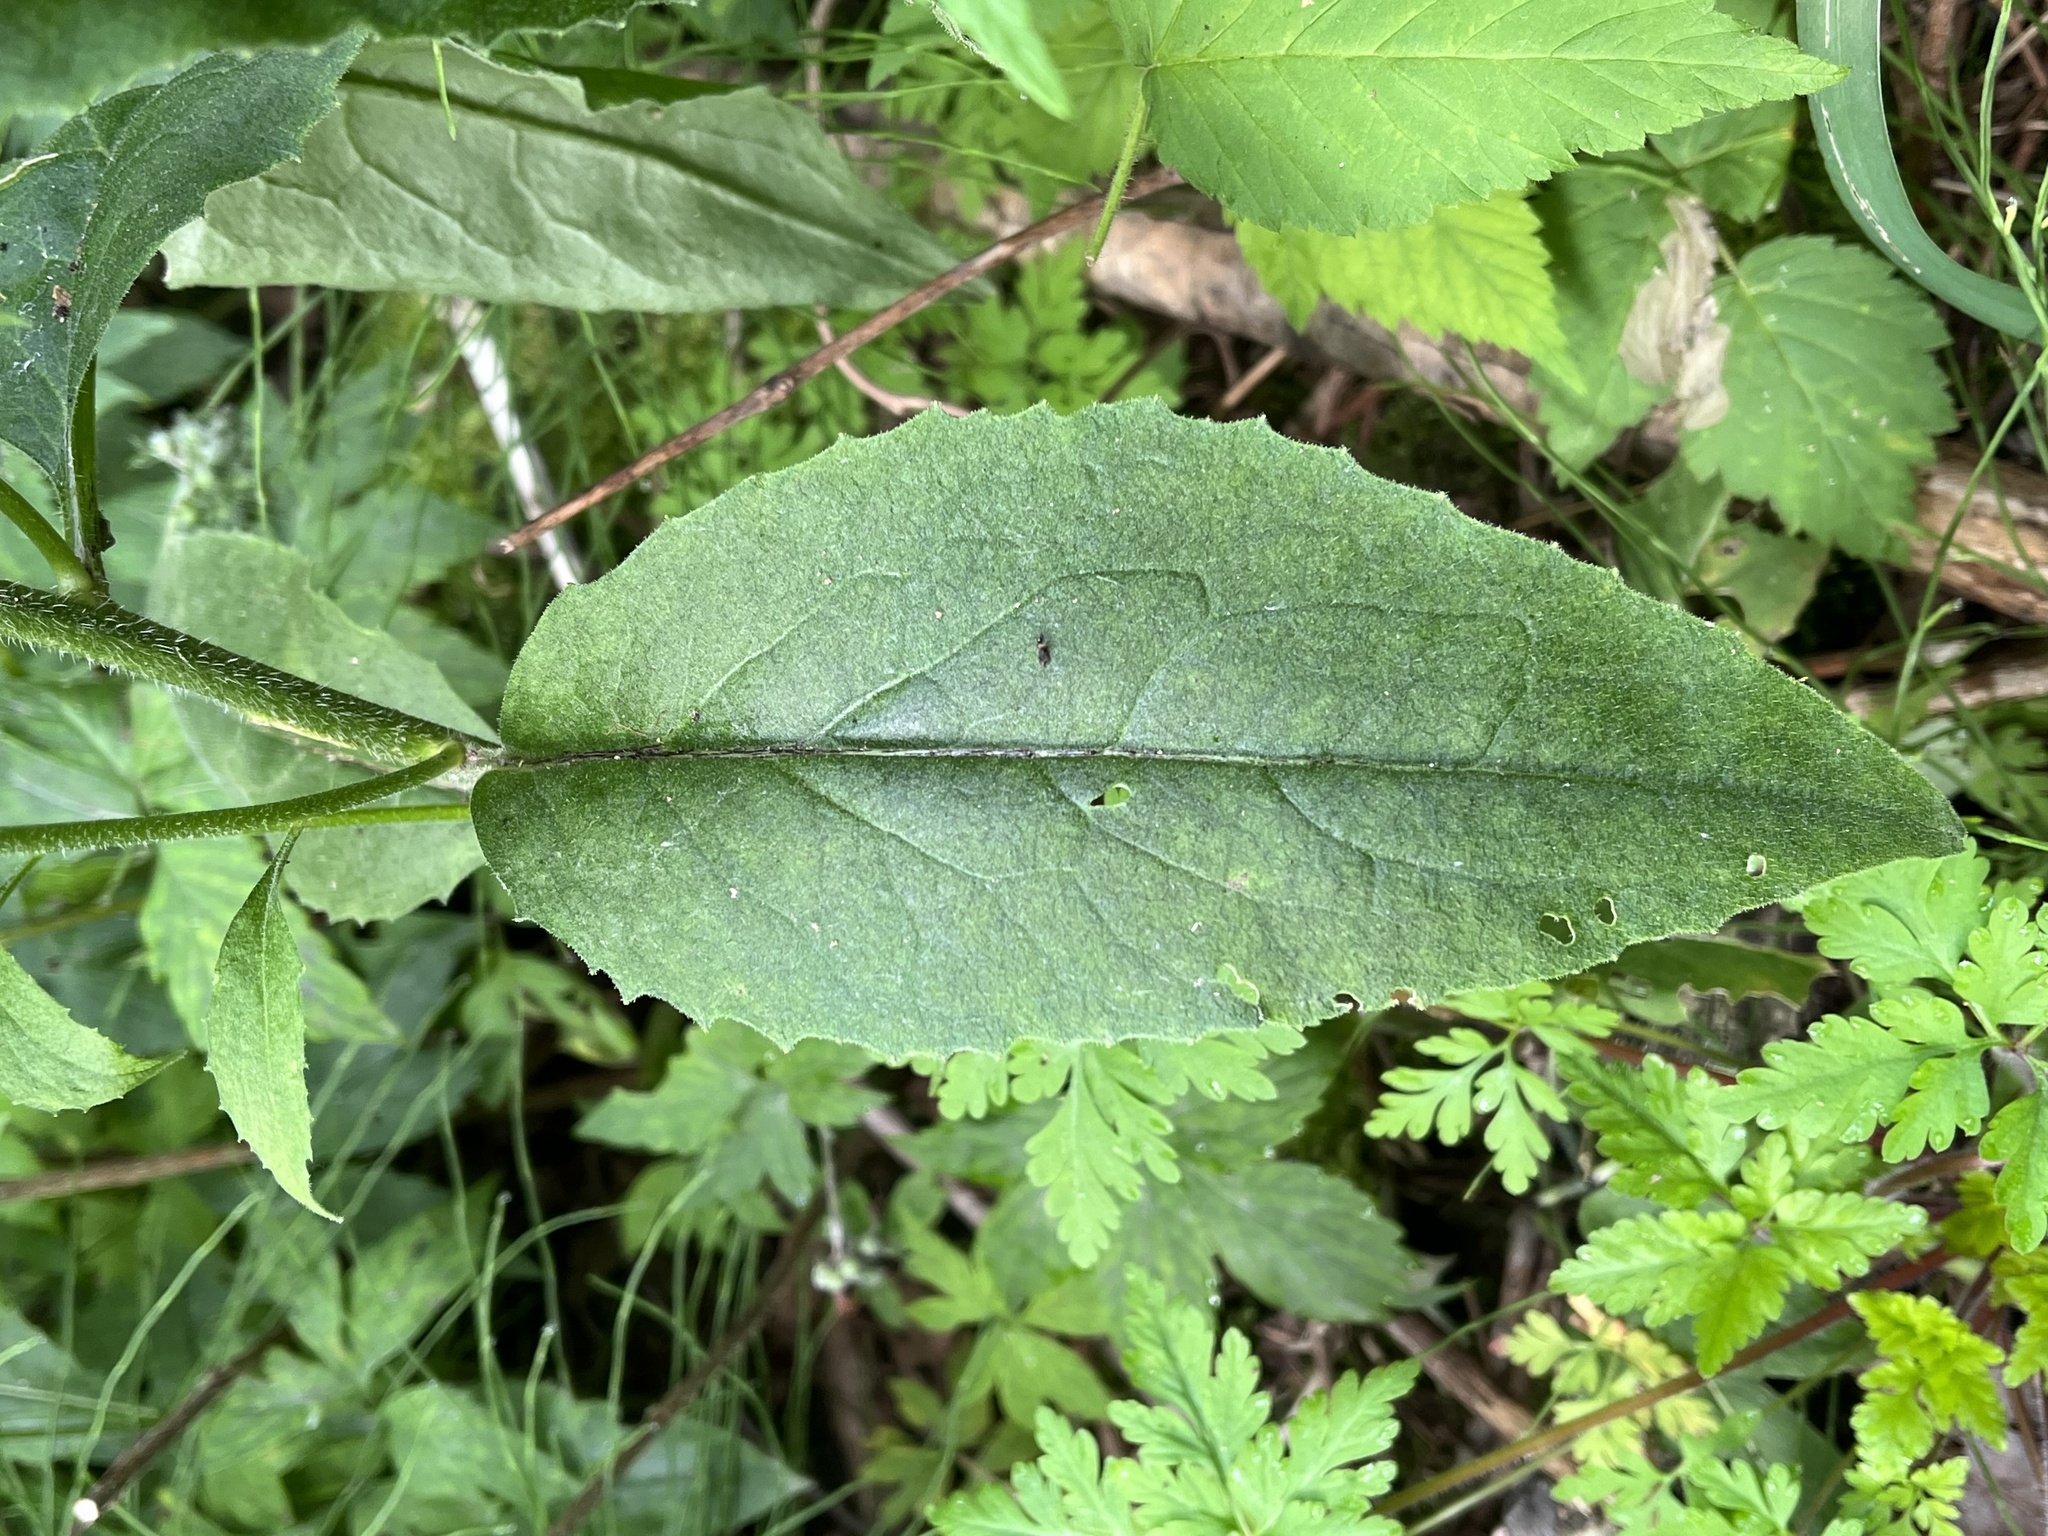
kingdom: Plantae
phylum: Tracheophyta
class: Magnoliopsida
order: Brassicales
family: Brassicaceae
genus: Hesperis
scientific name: Hesperis matronalis
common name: Dame's-violet
